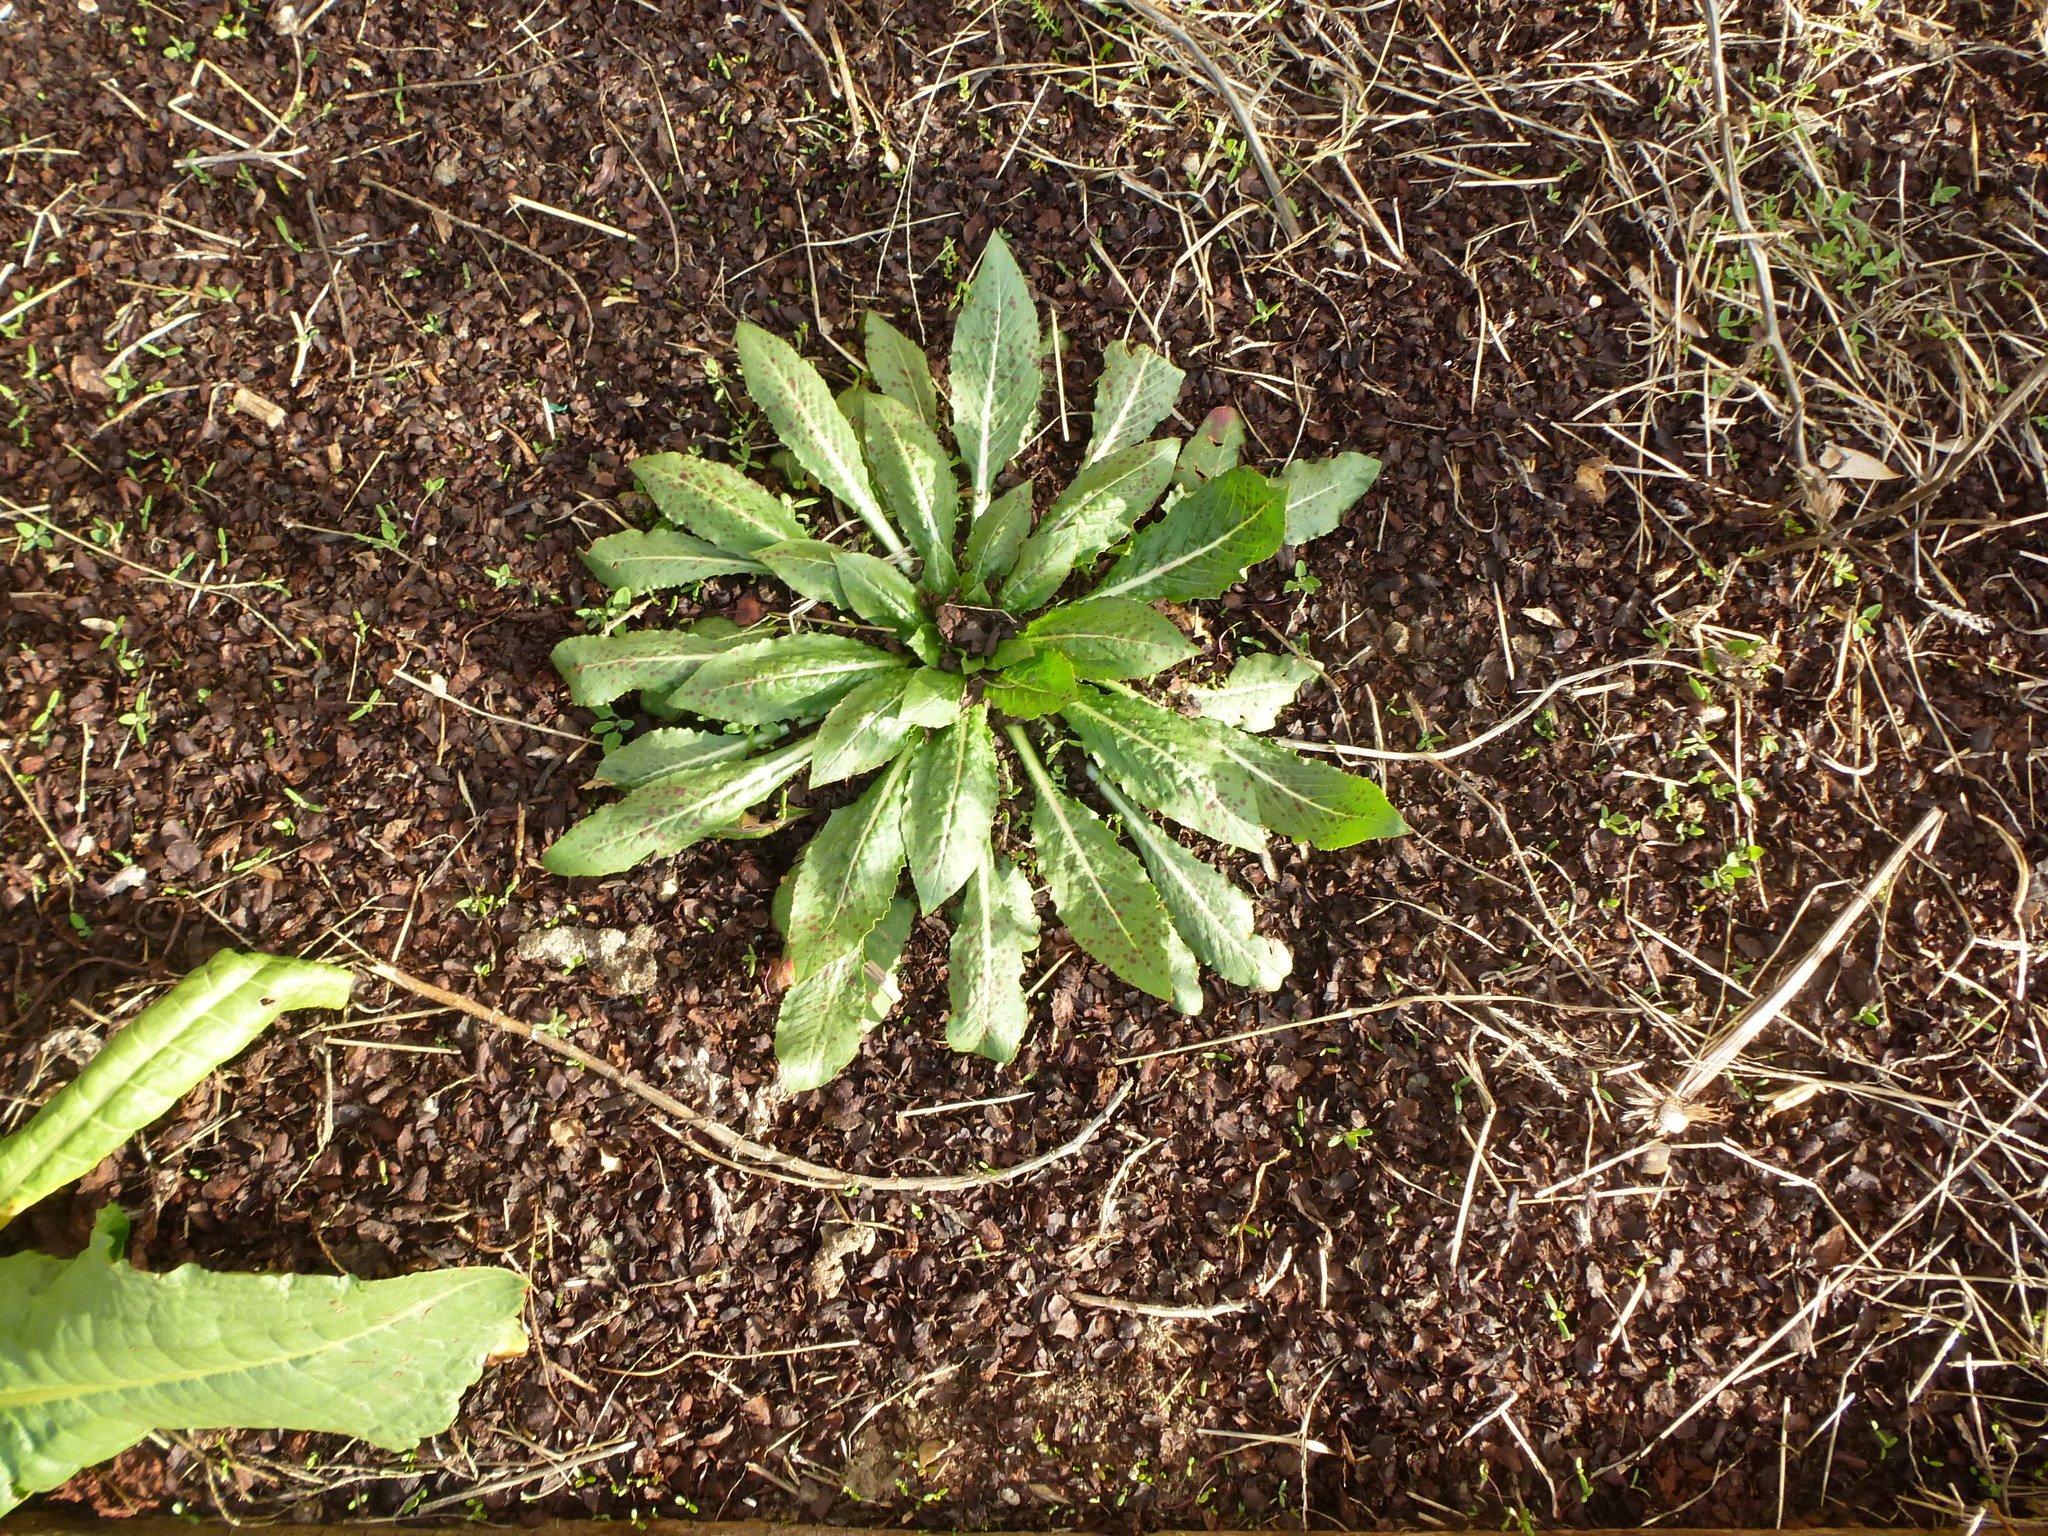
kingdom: Plantae
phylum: Tracheophyta
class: Magnoliopsida
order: Myrtales
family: Onagraceae
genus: Oenothera
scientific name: Oenothera biennis
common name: Common evening-primrose
